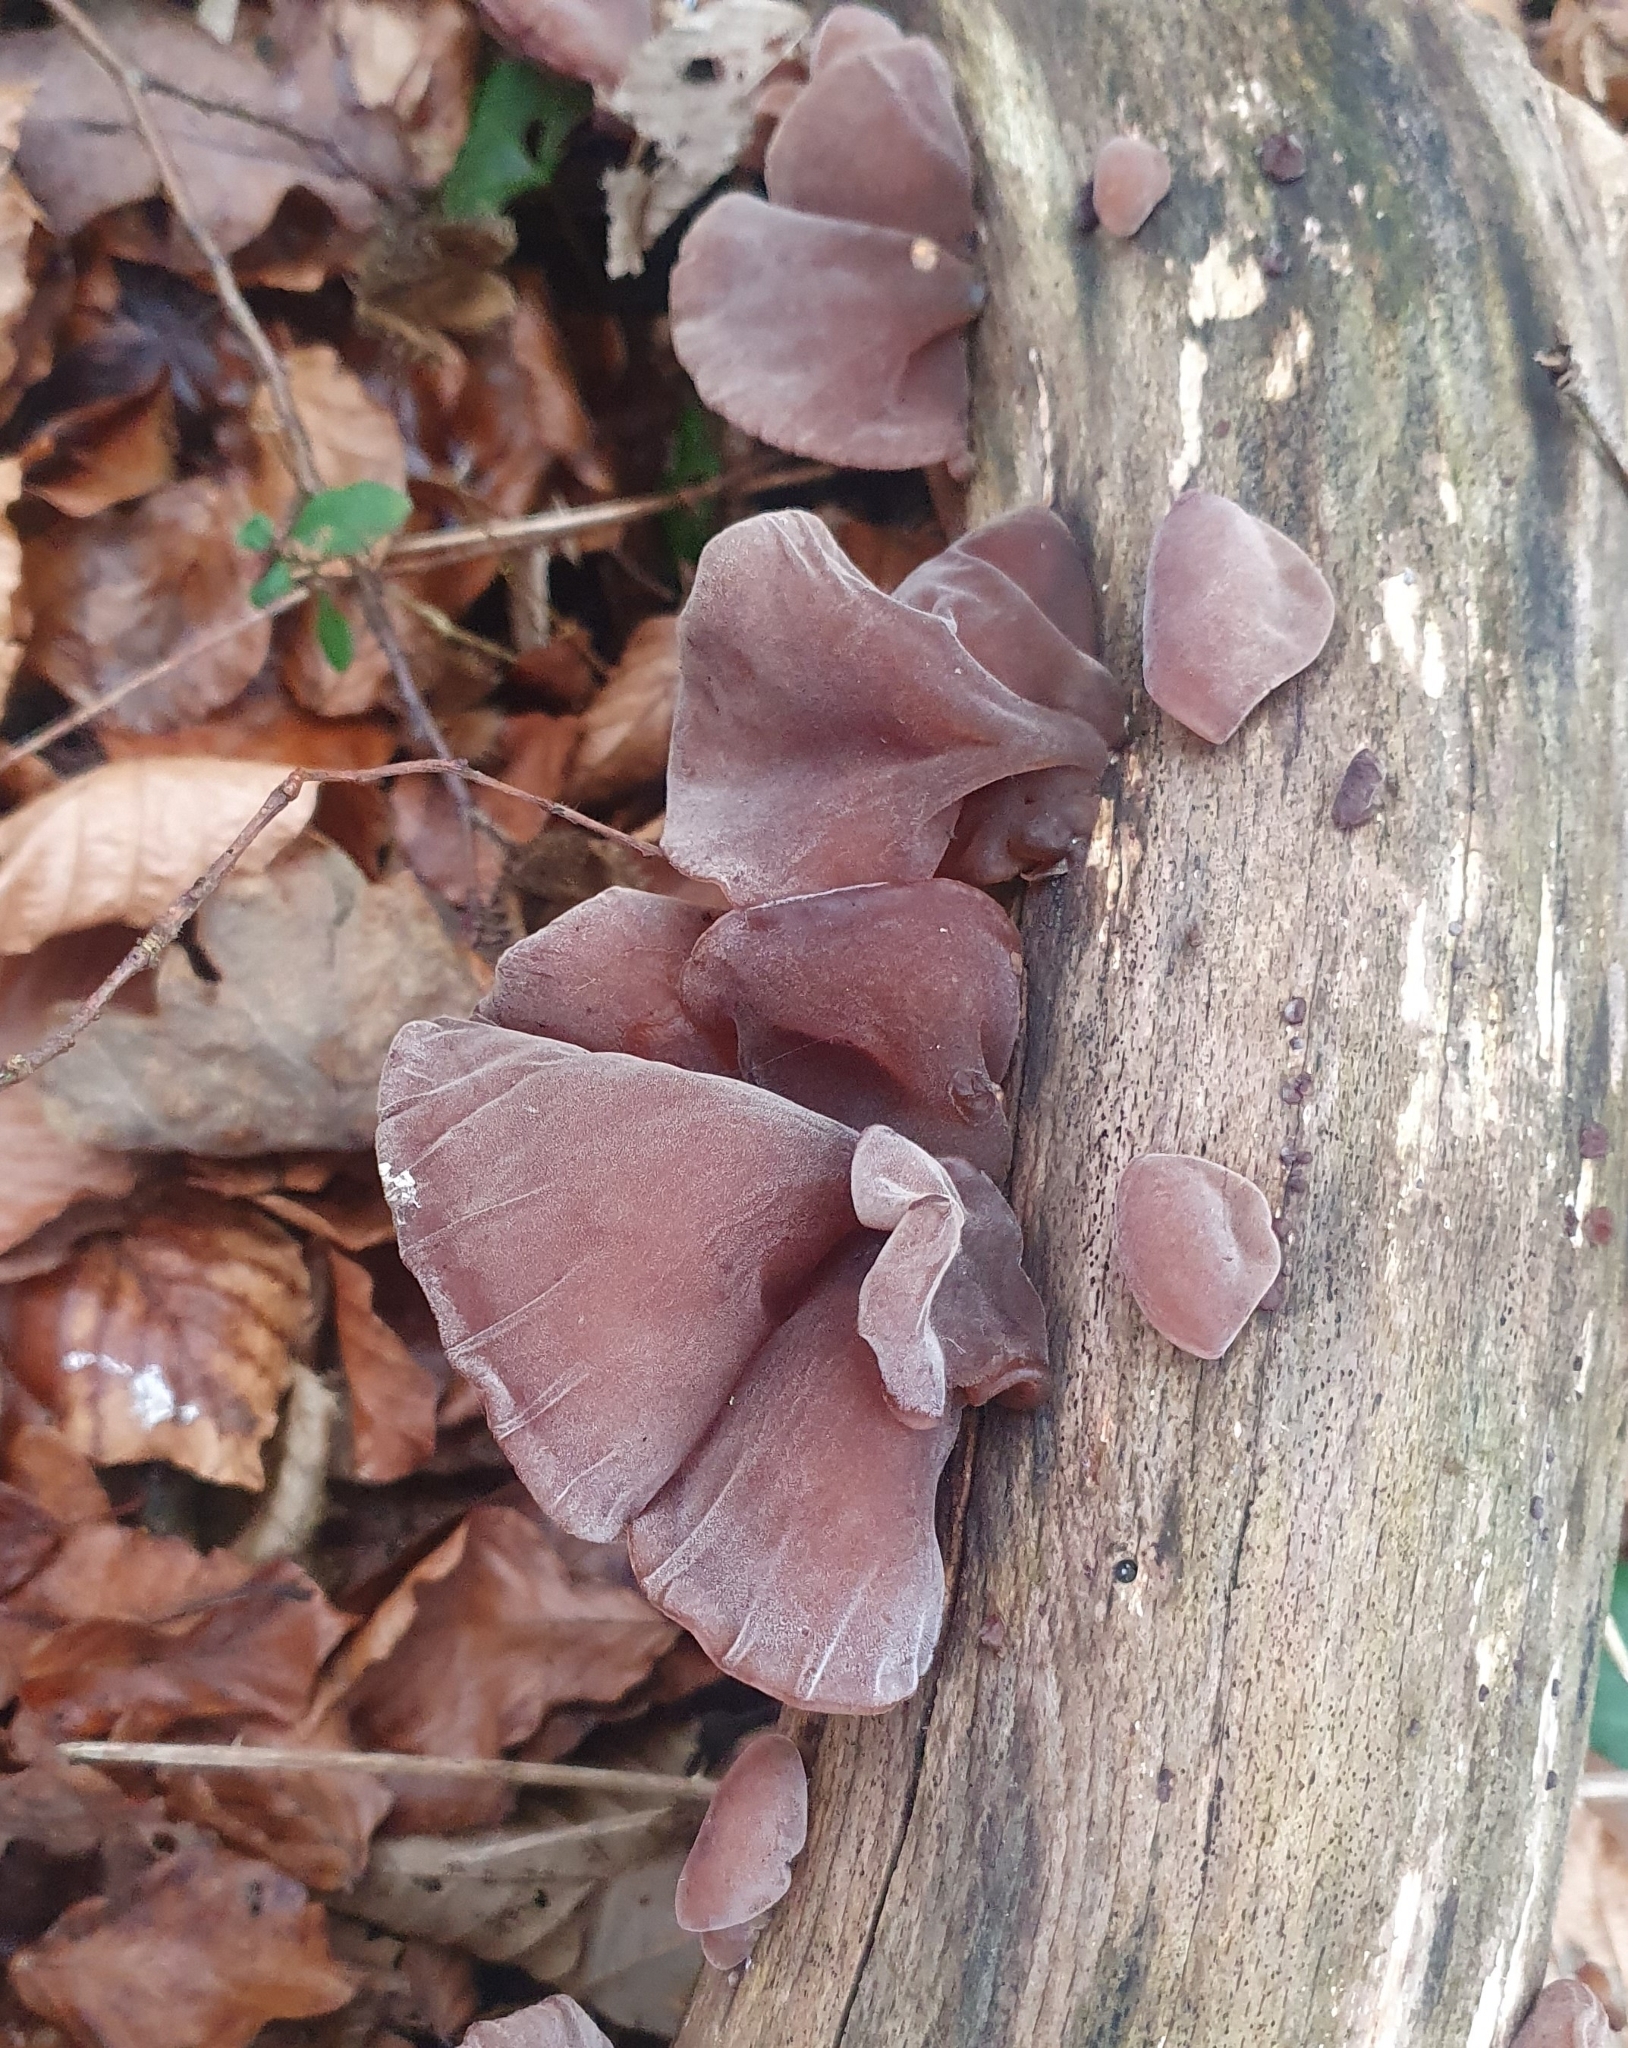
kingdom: Fungi
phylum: Basidiomycota
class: Agaricomycetes
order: Auriculariales
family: Auriculariaceae
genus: Auricularia
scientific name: Auricularia auricula-judae
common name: Jelly ear
